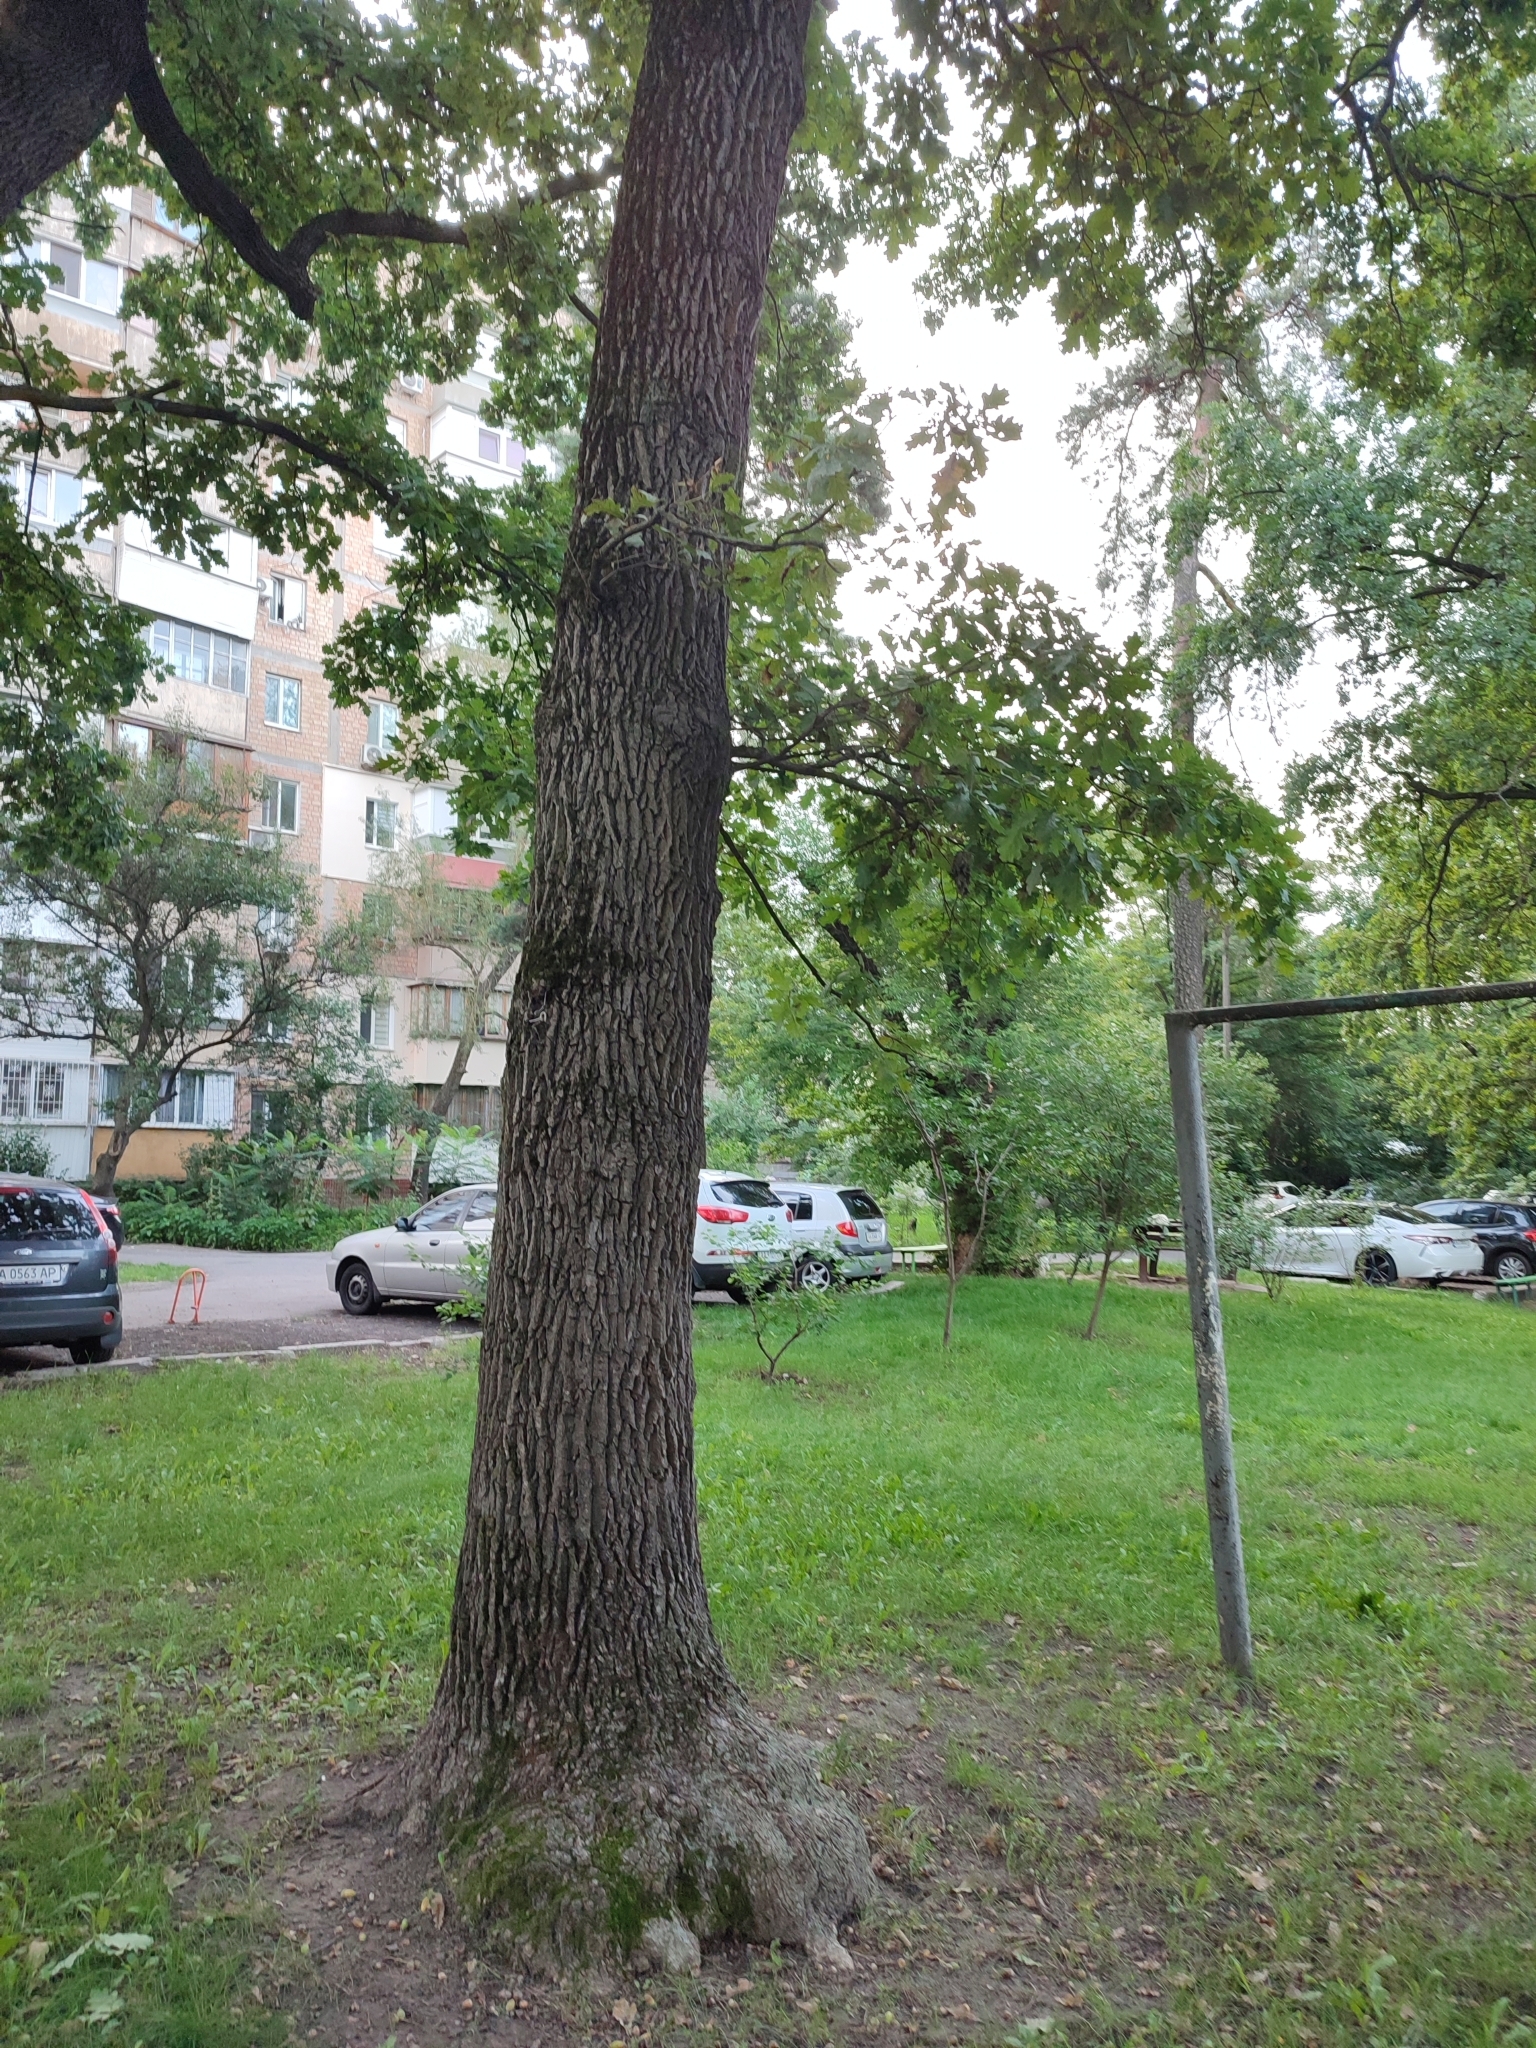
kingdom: Plantae
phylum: Tracheophyta
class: Magnoliopsida
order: Fagales
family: Fagaceae
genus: Quercus
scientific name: Quercus robur
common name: Pedunculate oak
